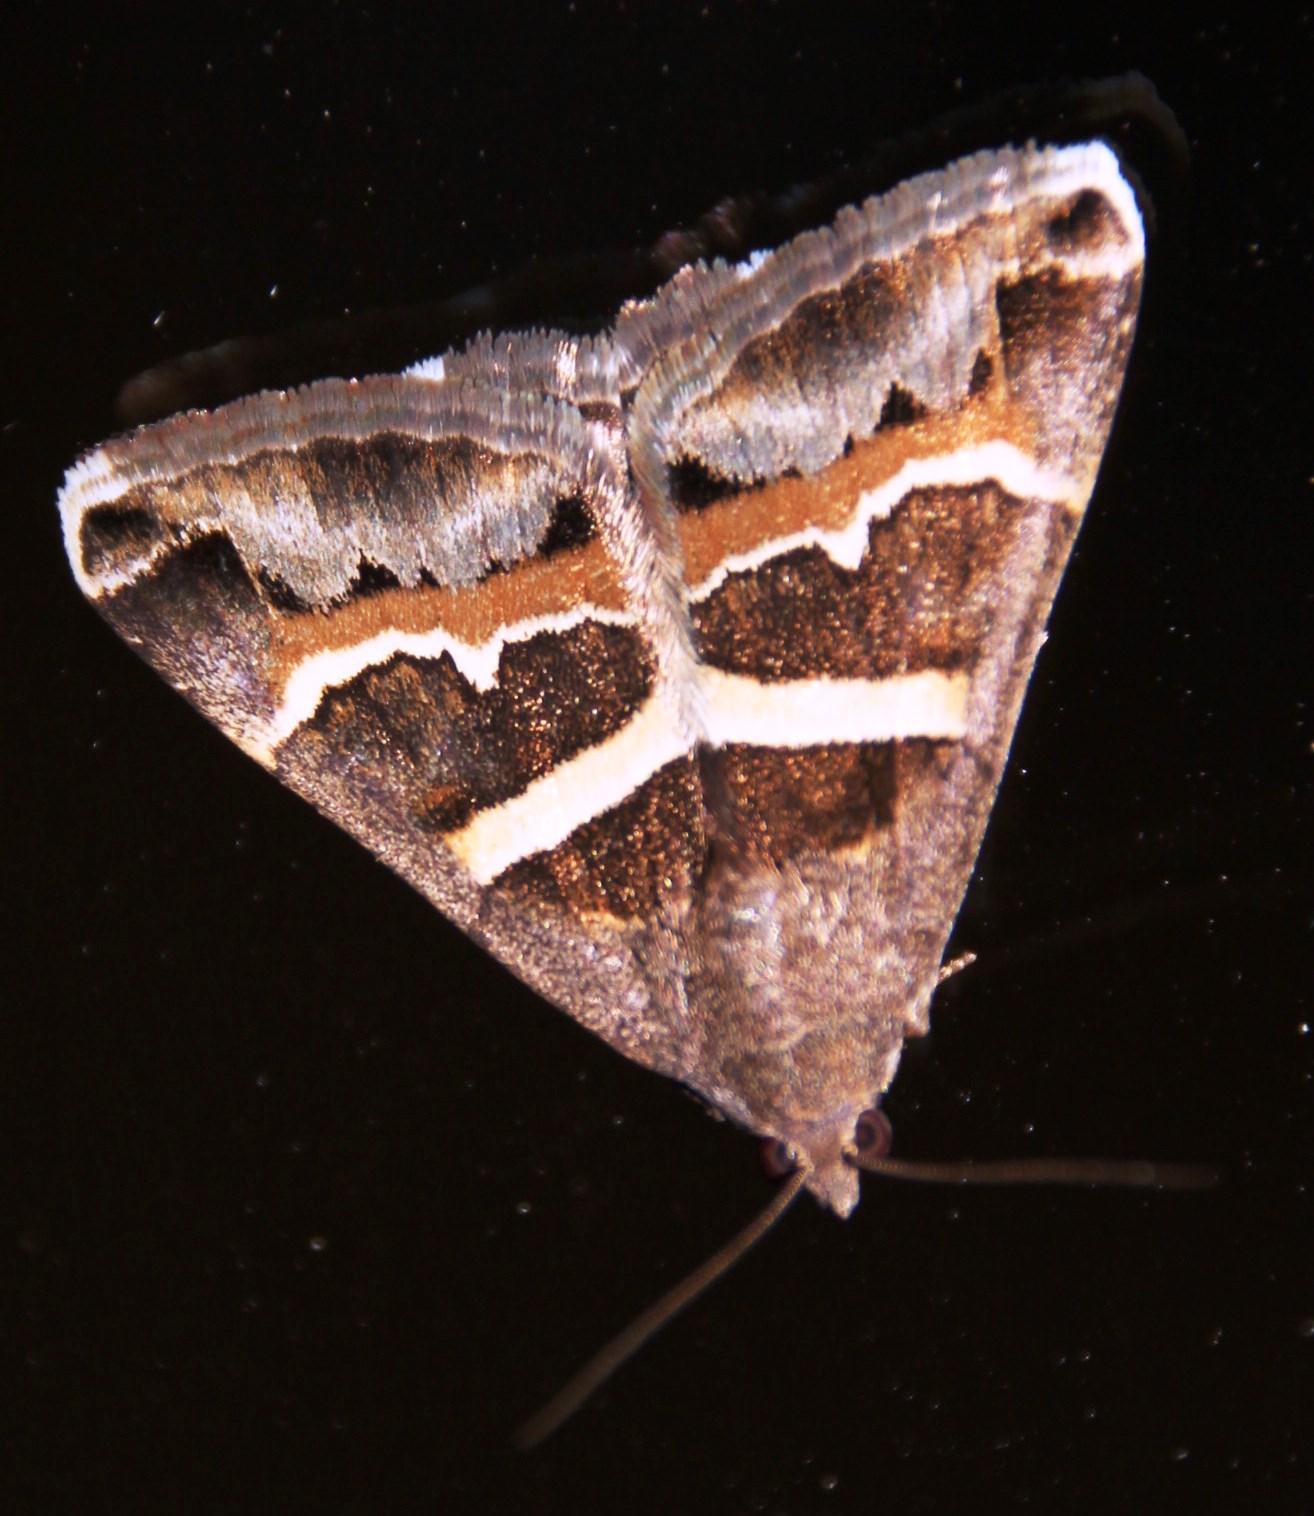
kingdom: Animalia
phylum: Arthropoda
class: Insecta
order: Lepidoptera
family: Erebidae
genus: Grammodes
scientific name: Grammodes stolida
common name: Geometrician
